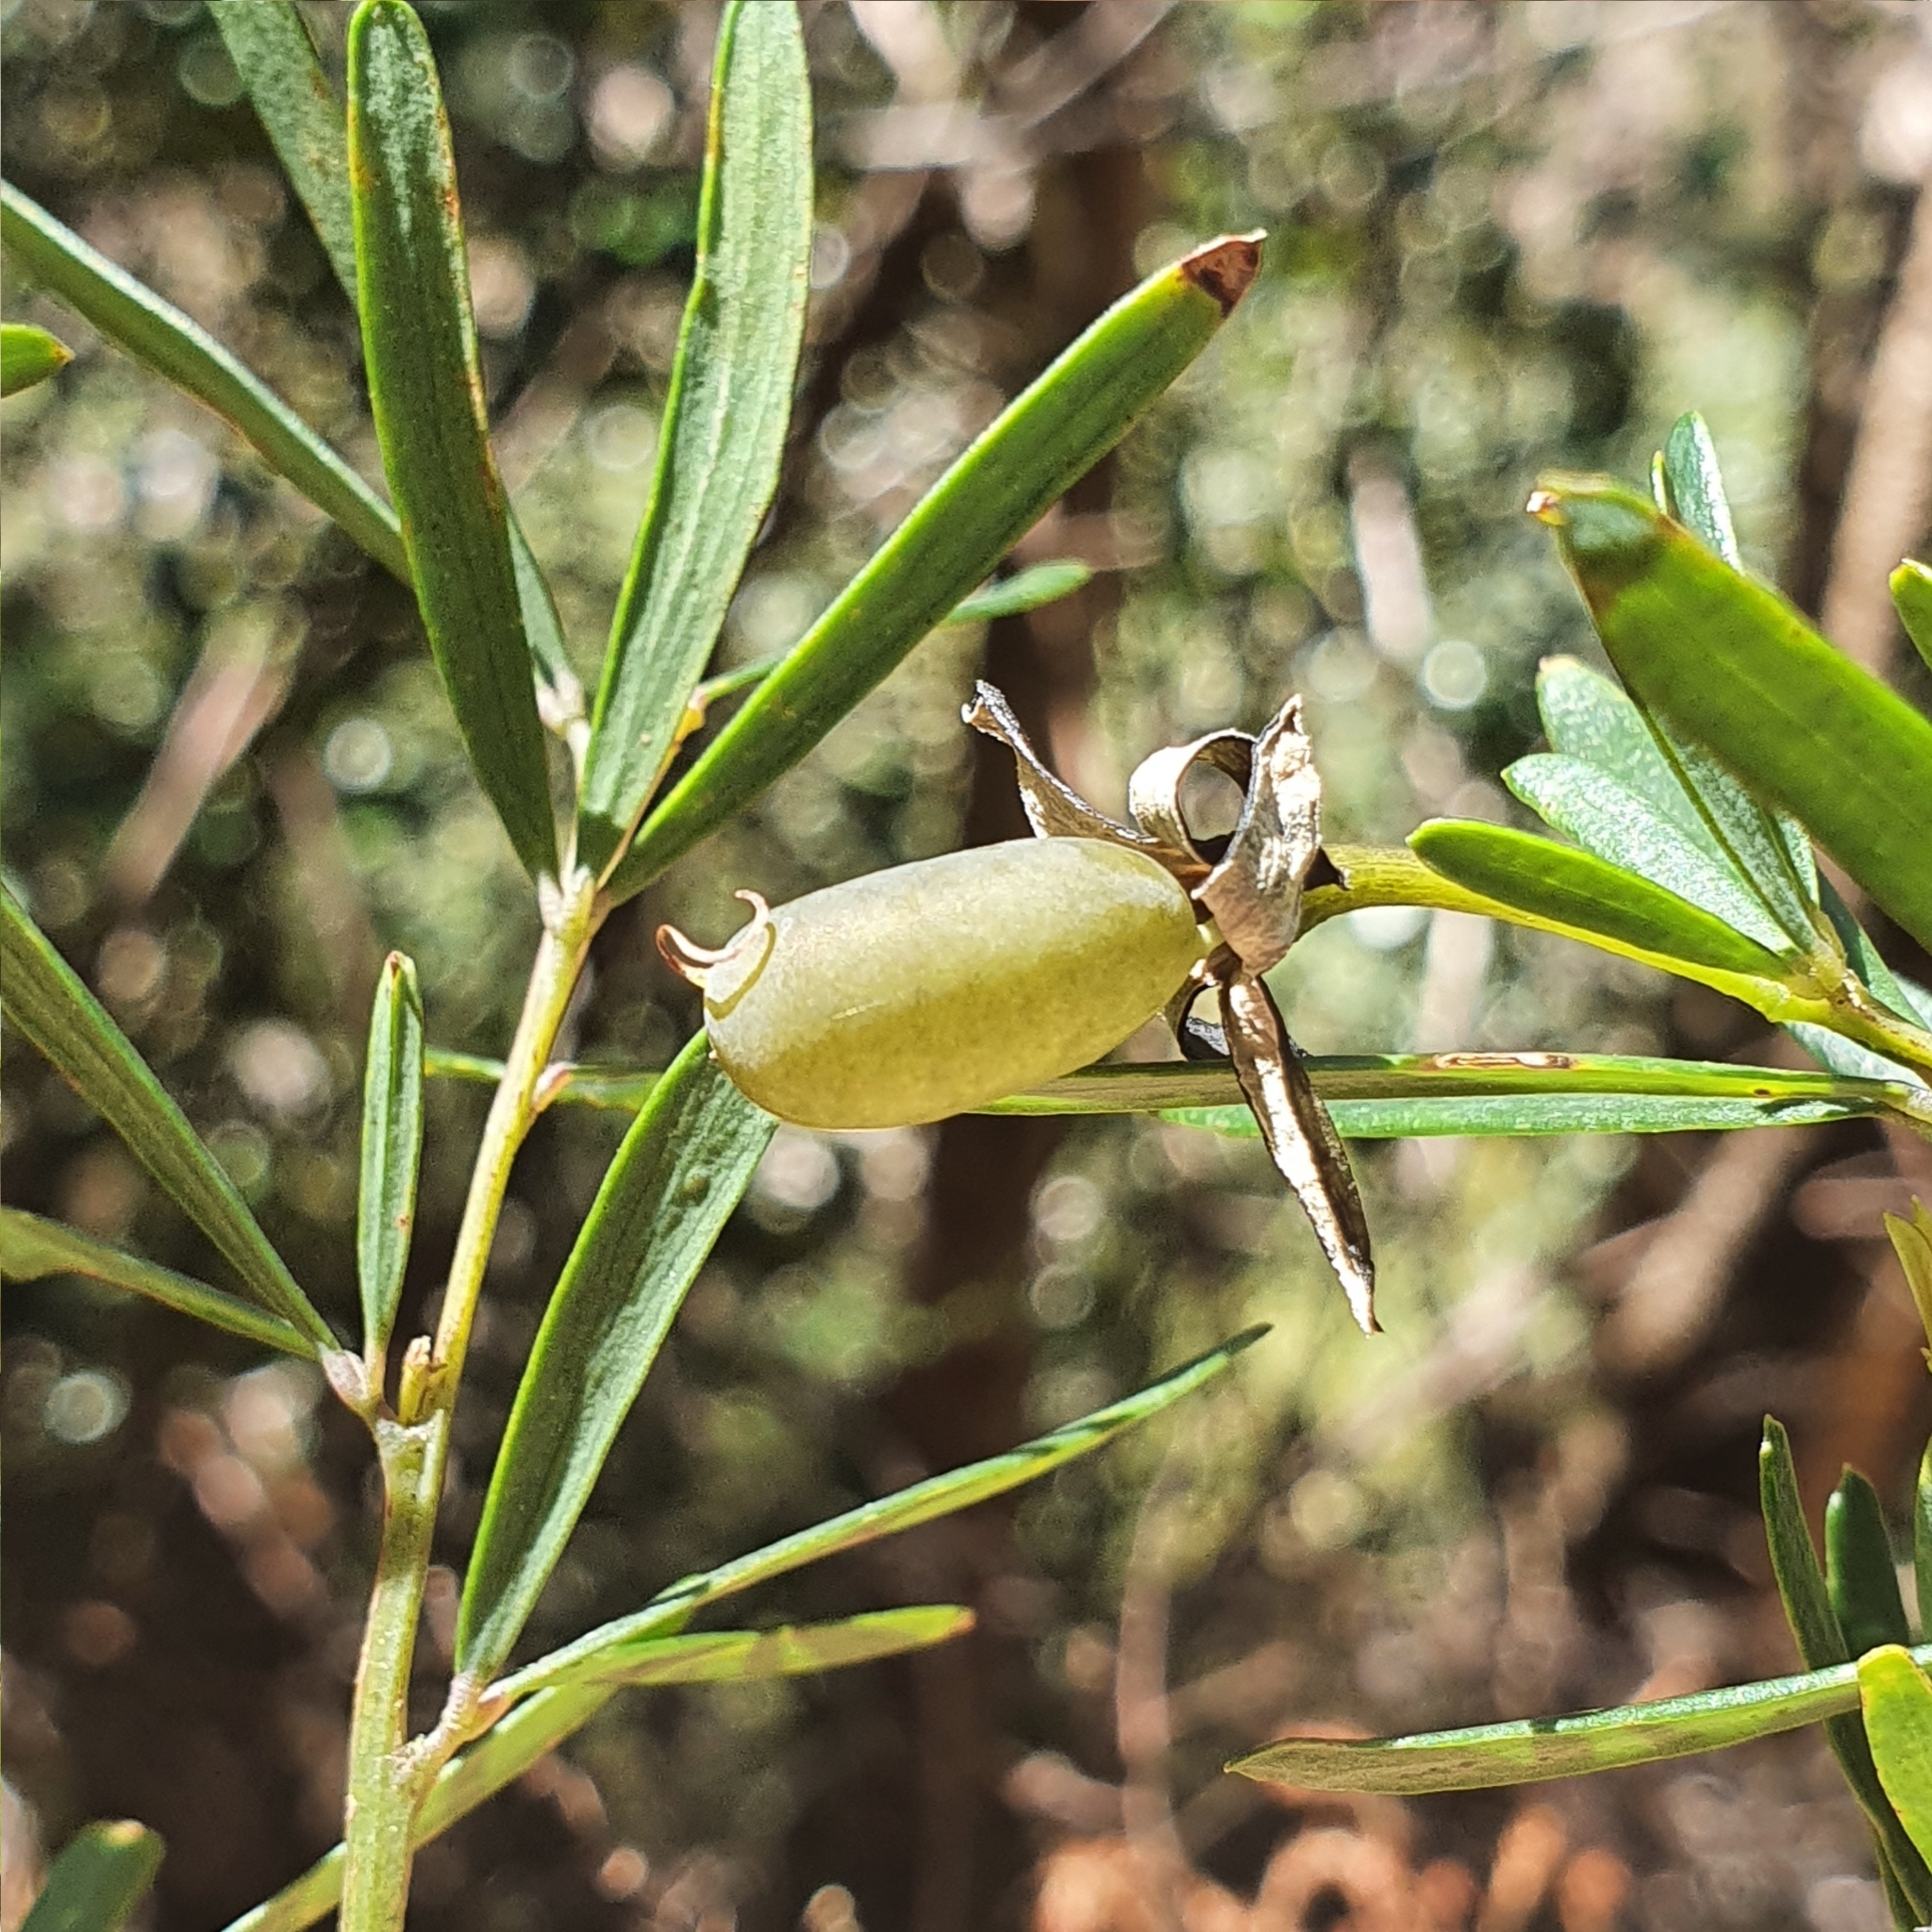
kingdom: Plantae
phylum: Tracheophyta
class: Magnoliopsida
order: Fabales
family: Fabaceae
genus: Gompholobium
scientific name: Gompholobium latifolium
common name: Broadleaf wedge-pea
